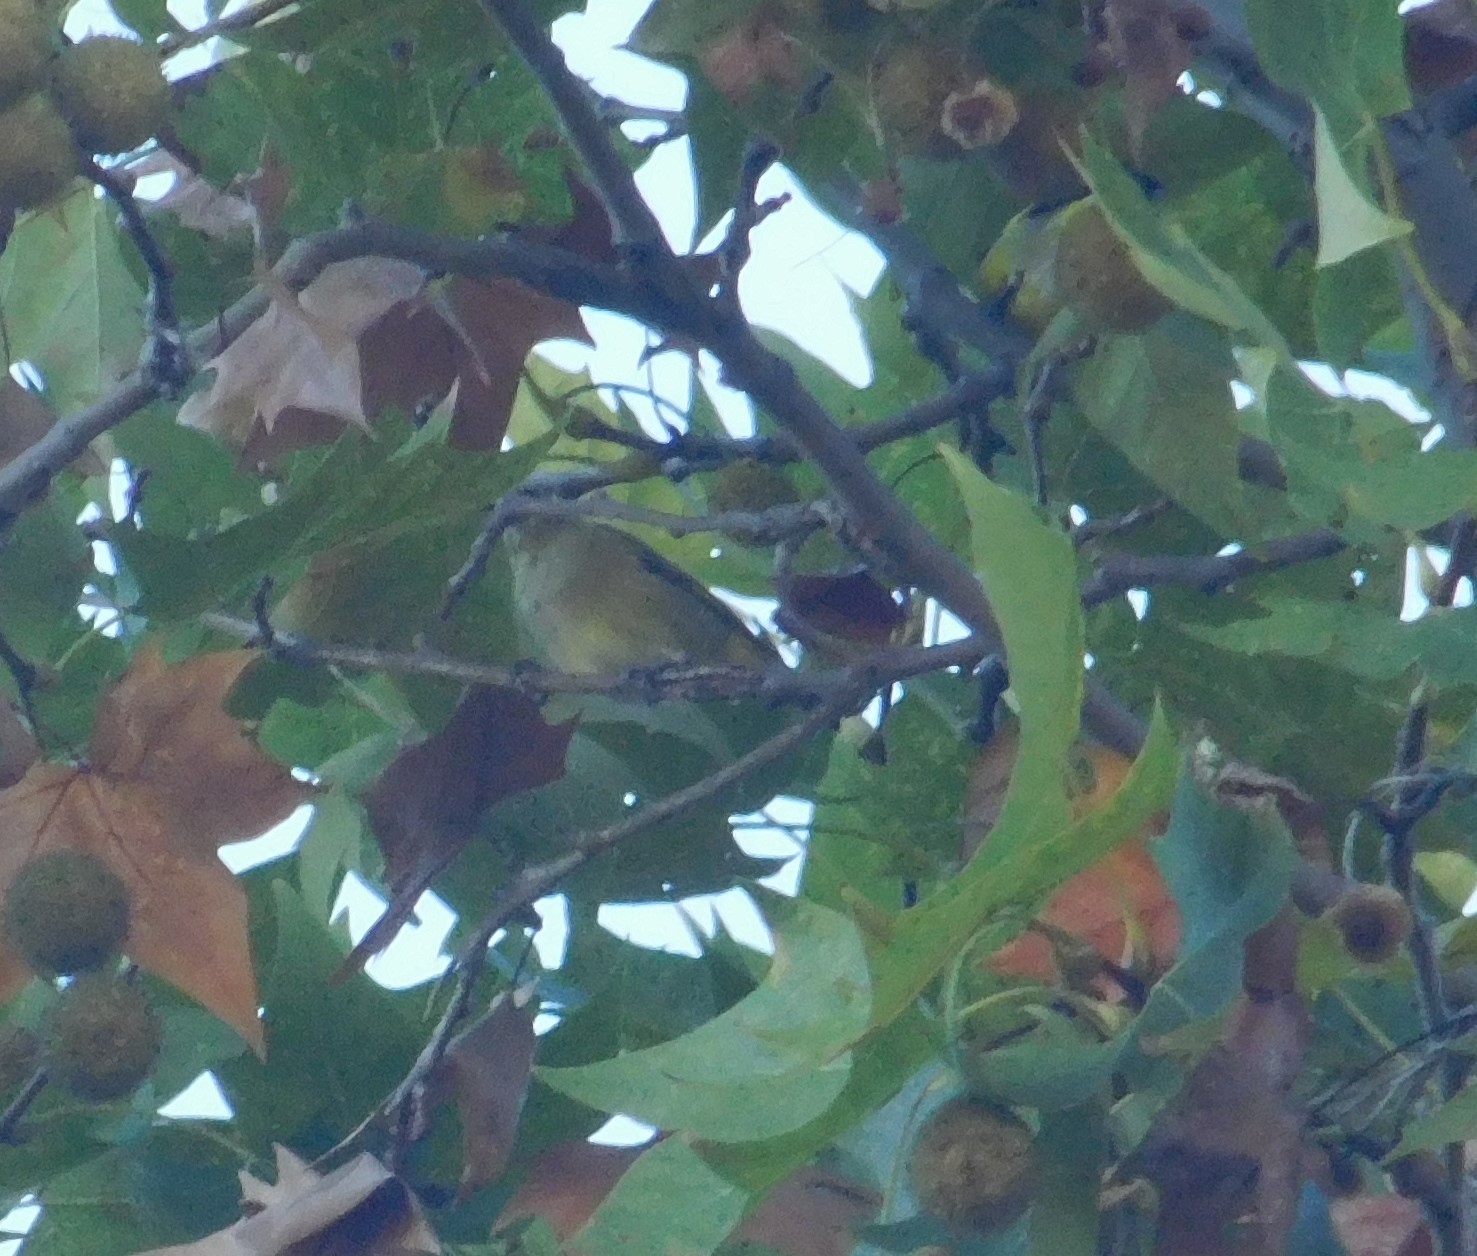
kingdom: Animalia
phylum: Chordata
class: Aves
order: Passeriformes
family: Fringillidae
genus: Spinus
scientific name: Spinus magellanicus
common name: Hooded siskin
